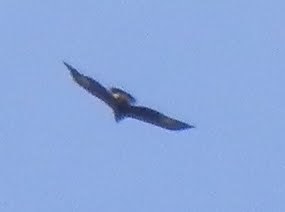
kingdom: Animalia
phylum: Chordata
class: Aves
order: Accipitriformes
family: Accipitridae
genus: Aquila
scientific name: Aquila chrysaetos
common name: Golden eagle
